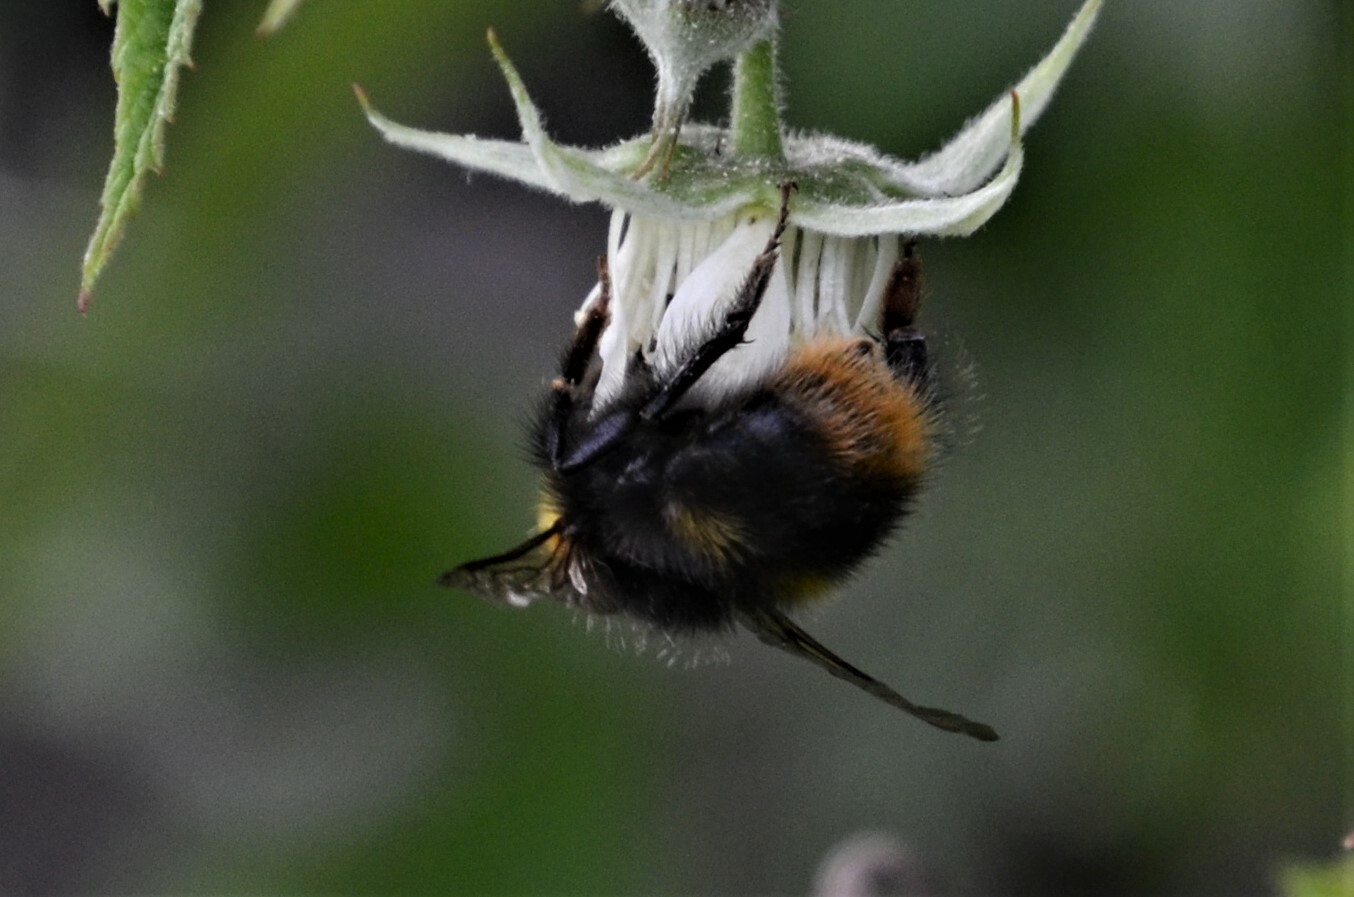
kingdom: Animalia
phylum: Arthropoda
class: Insecta
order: Hymenoptera
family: Apidae
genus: Bombus
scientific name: Bombus pratorum
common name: Early humble-bee
